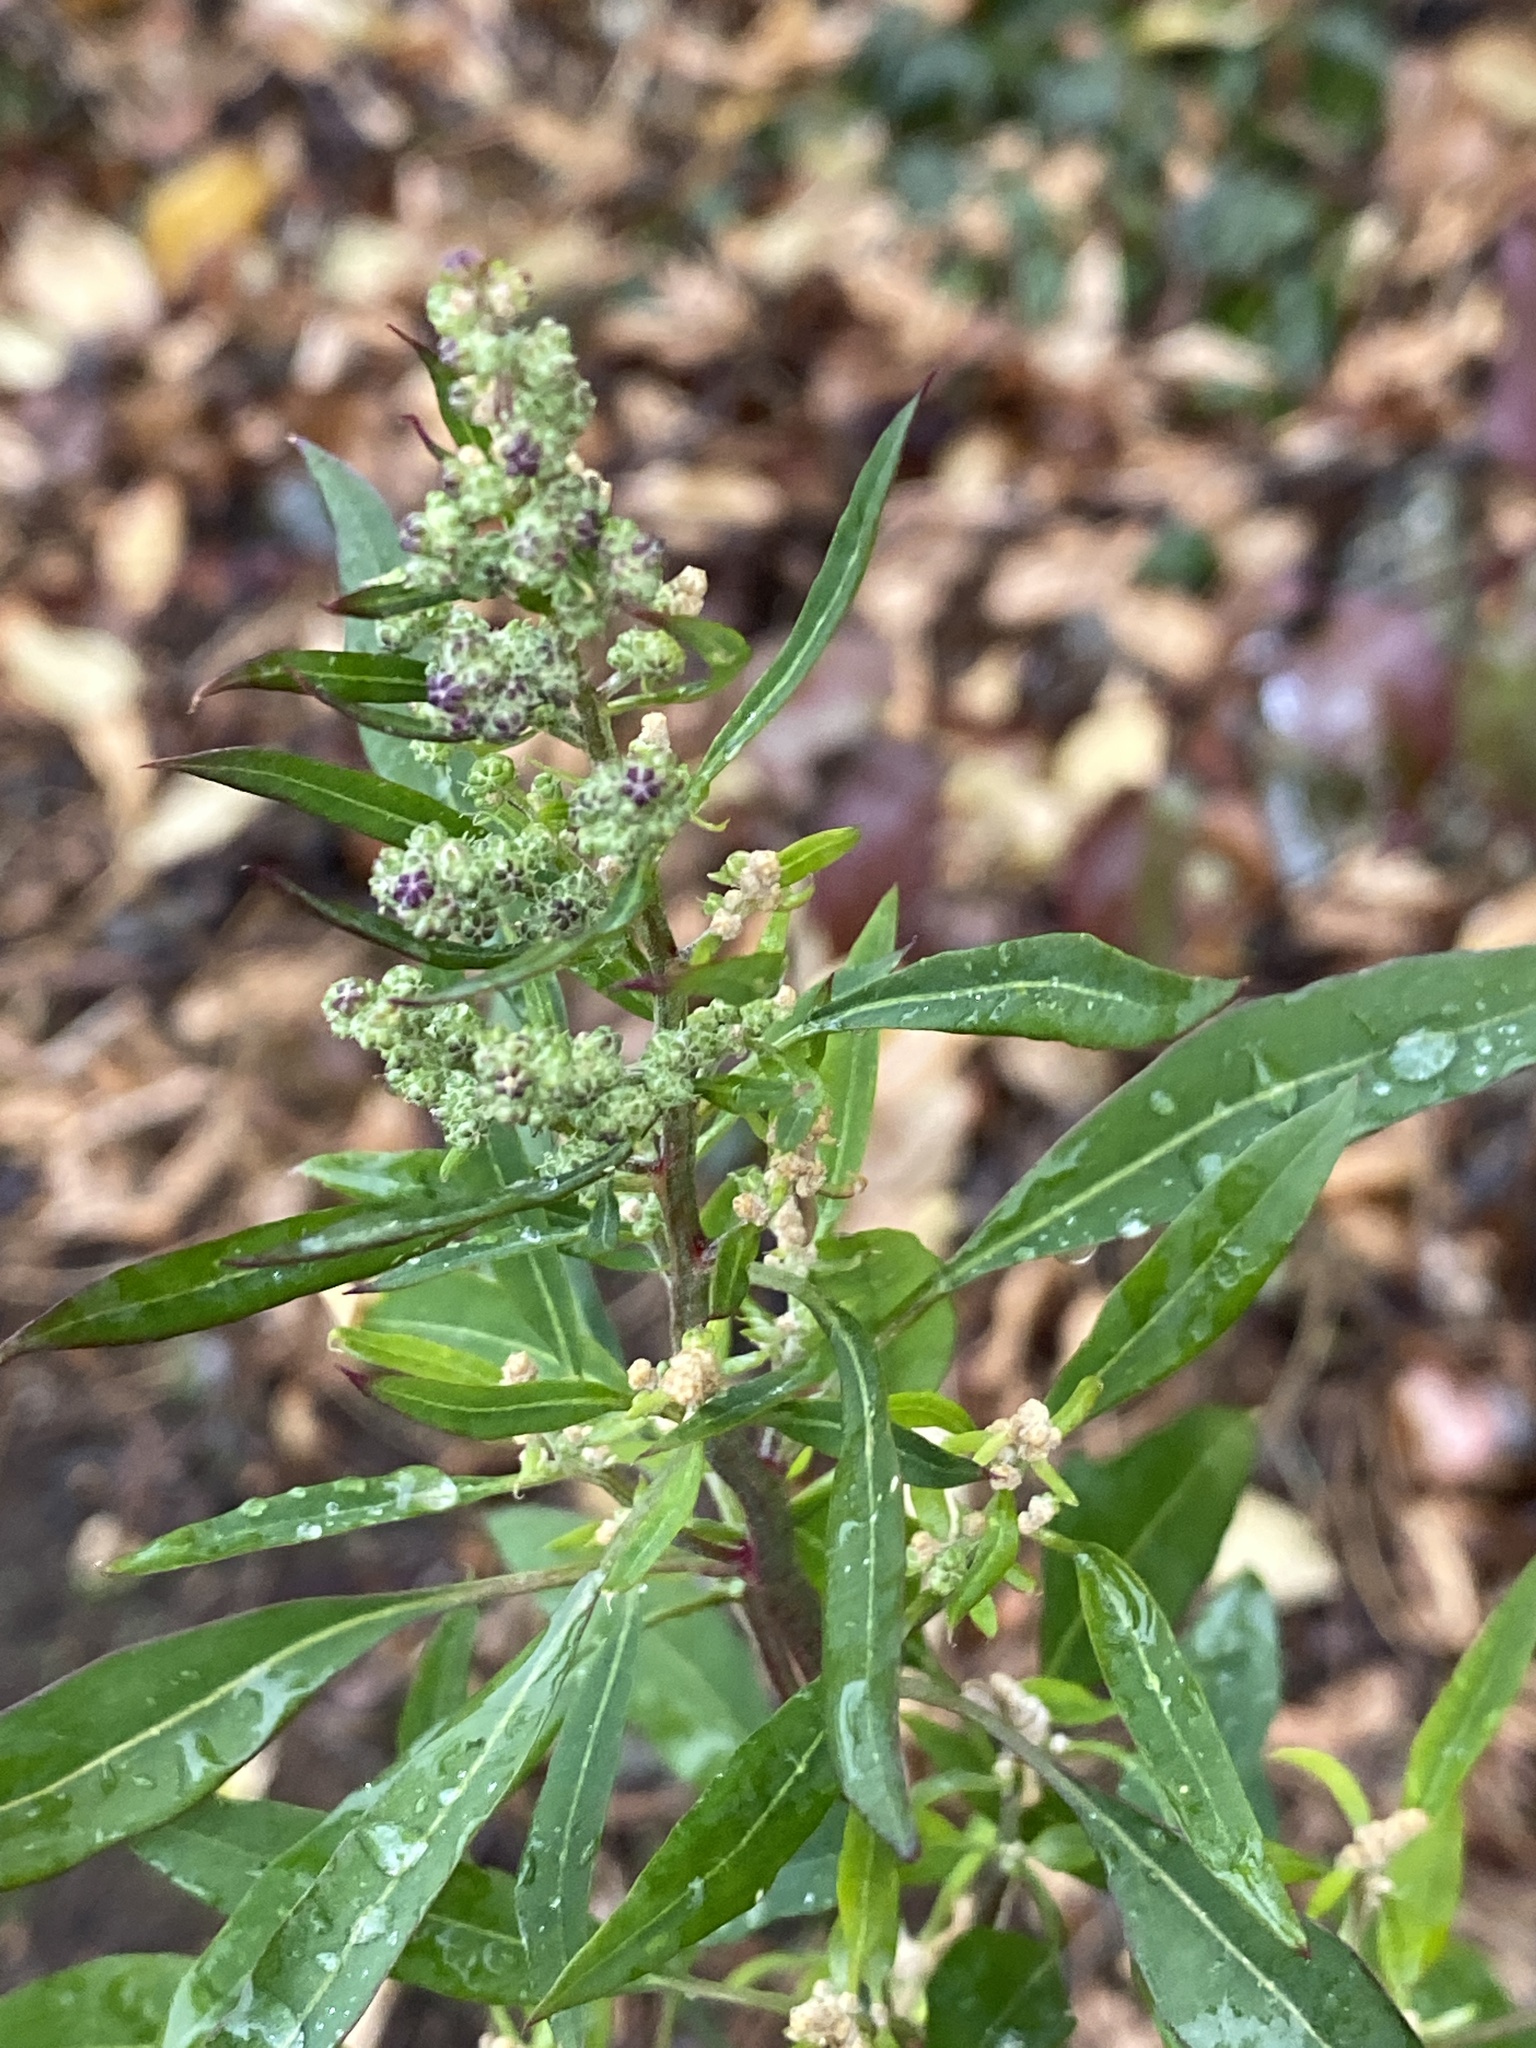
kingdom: Plantae
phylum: Tracheophyta
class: Magnoliopsida
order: Caryophyllales
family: Amaranthaceae
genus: Chenopodium
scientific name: Chenopodium album
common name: Fat-hen
